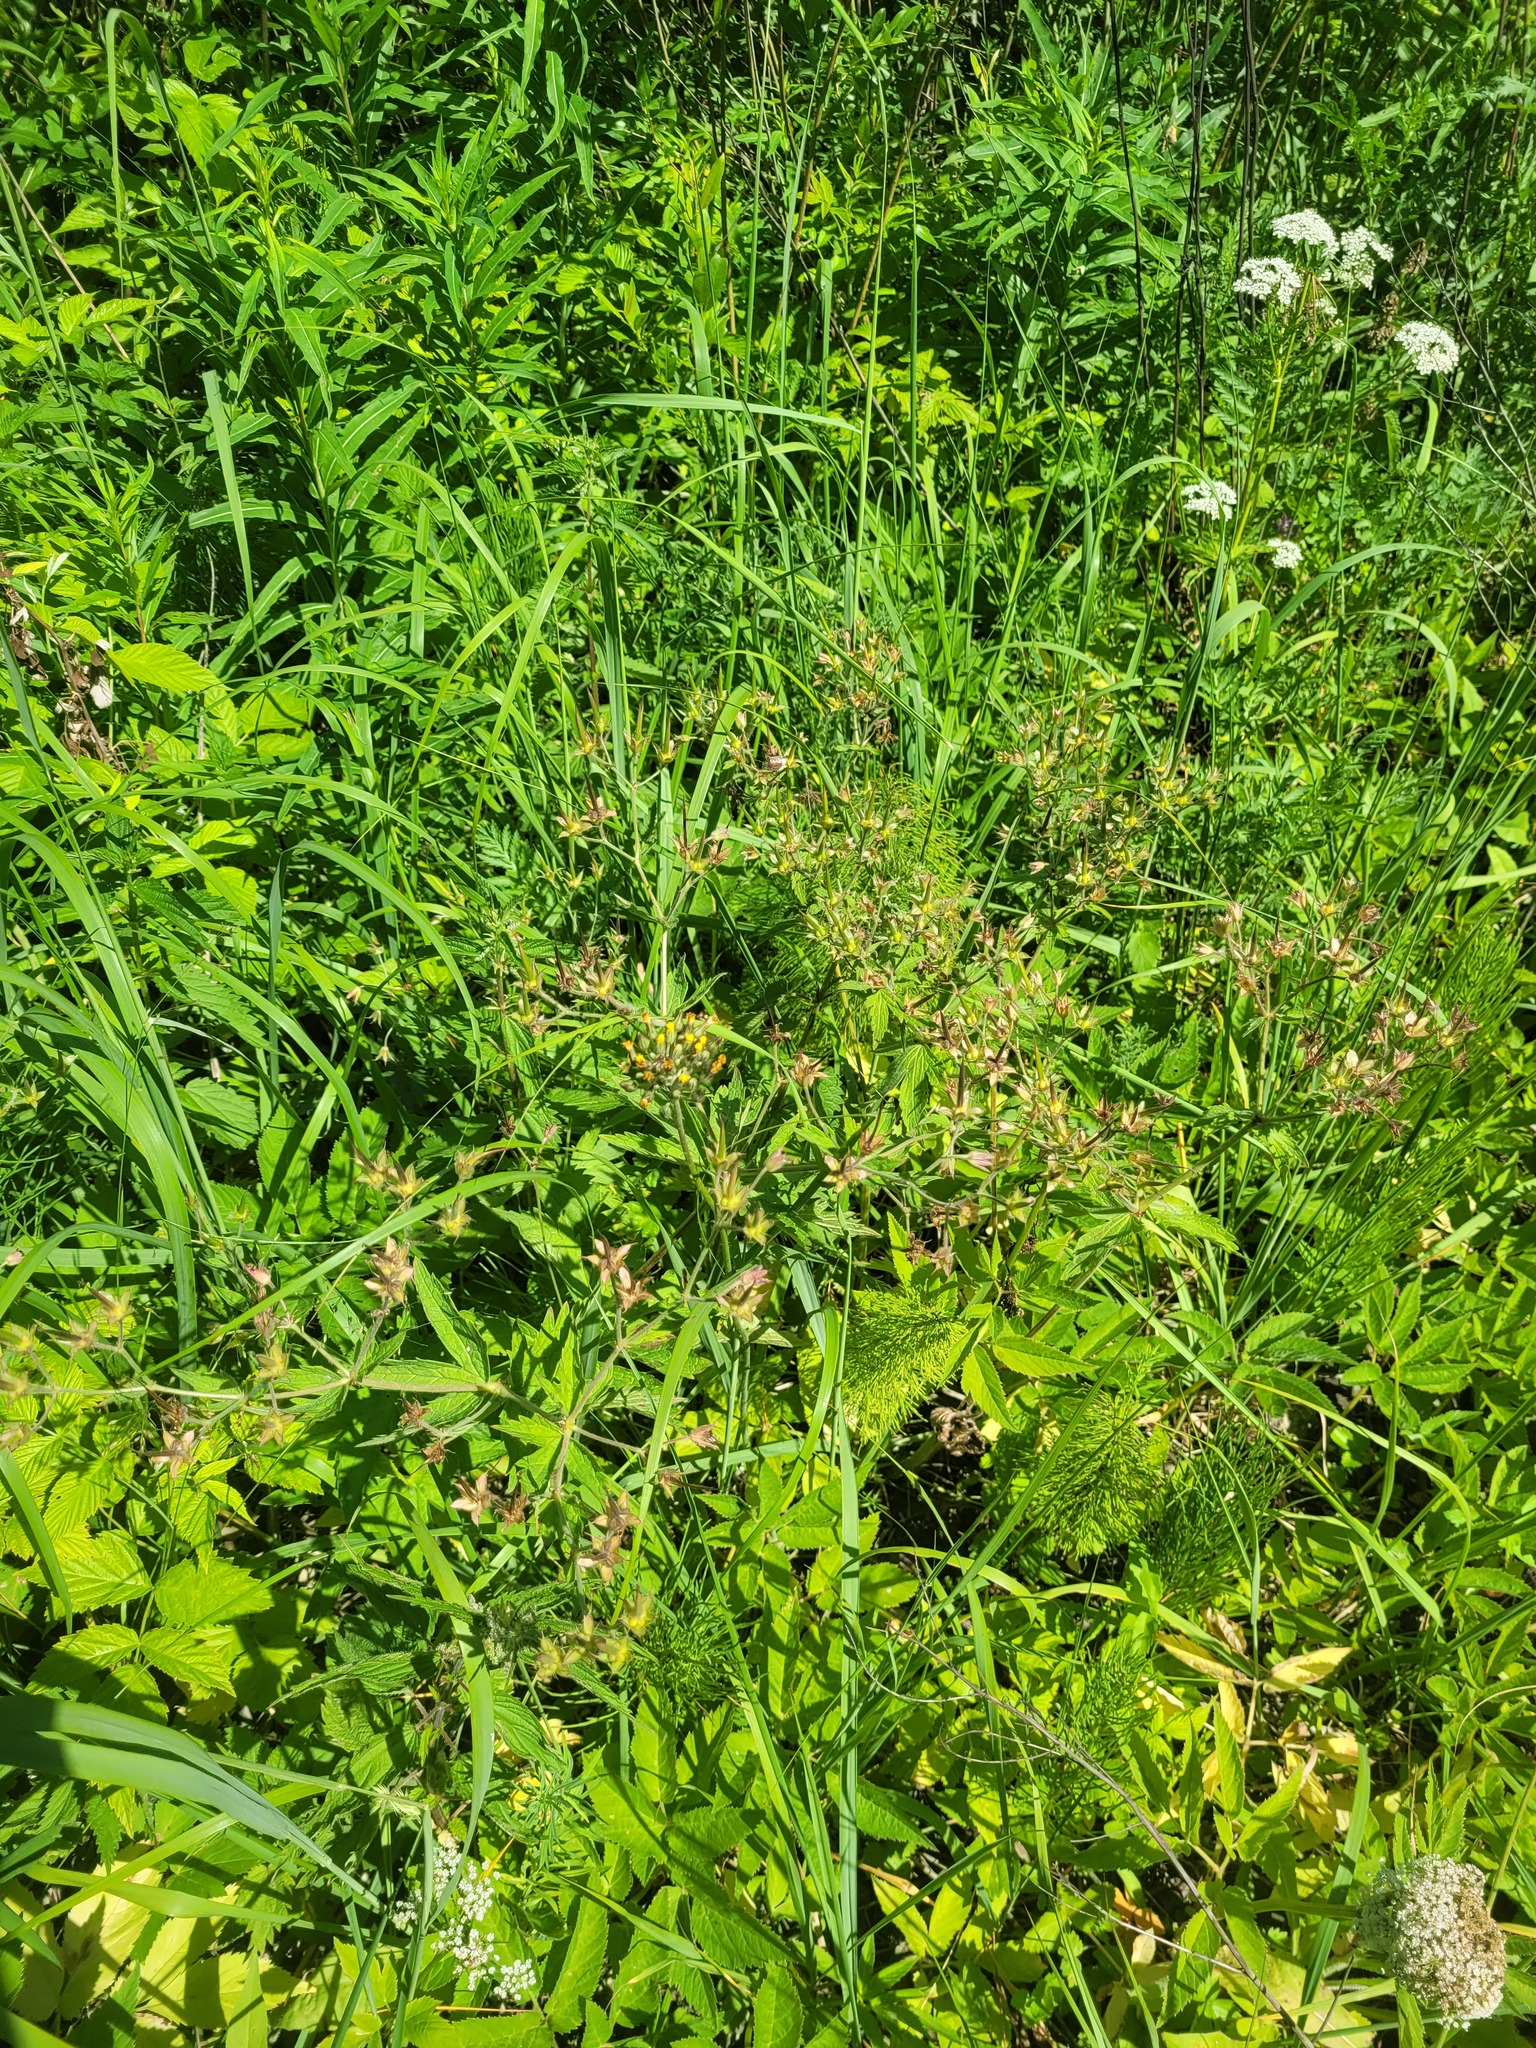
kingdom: Plantae
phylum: Tracheophyta
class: Magnoliopsida
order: Geraniales
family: Geraniaceae
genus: Geranium
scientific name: Geranium sylvaticum
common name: Wood crane's-bill
